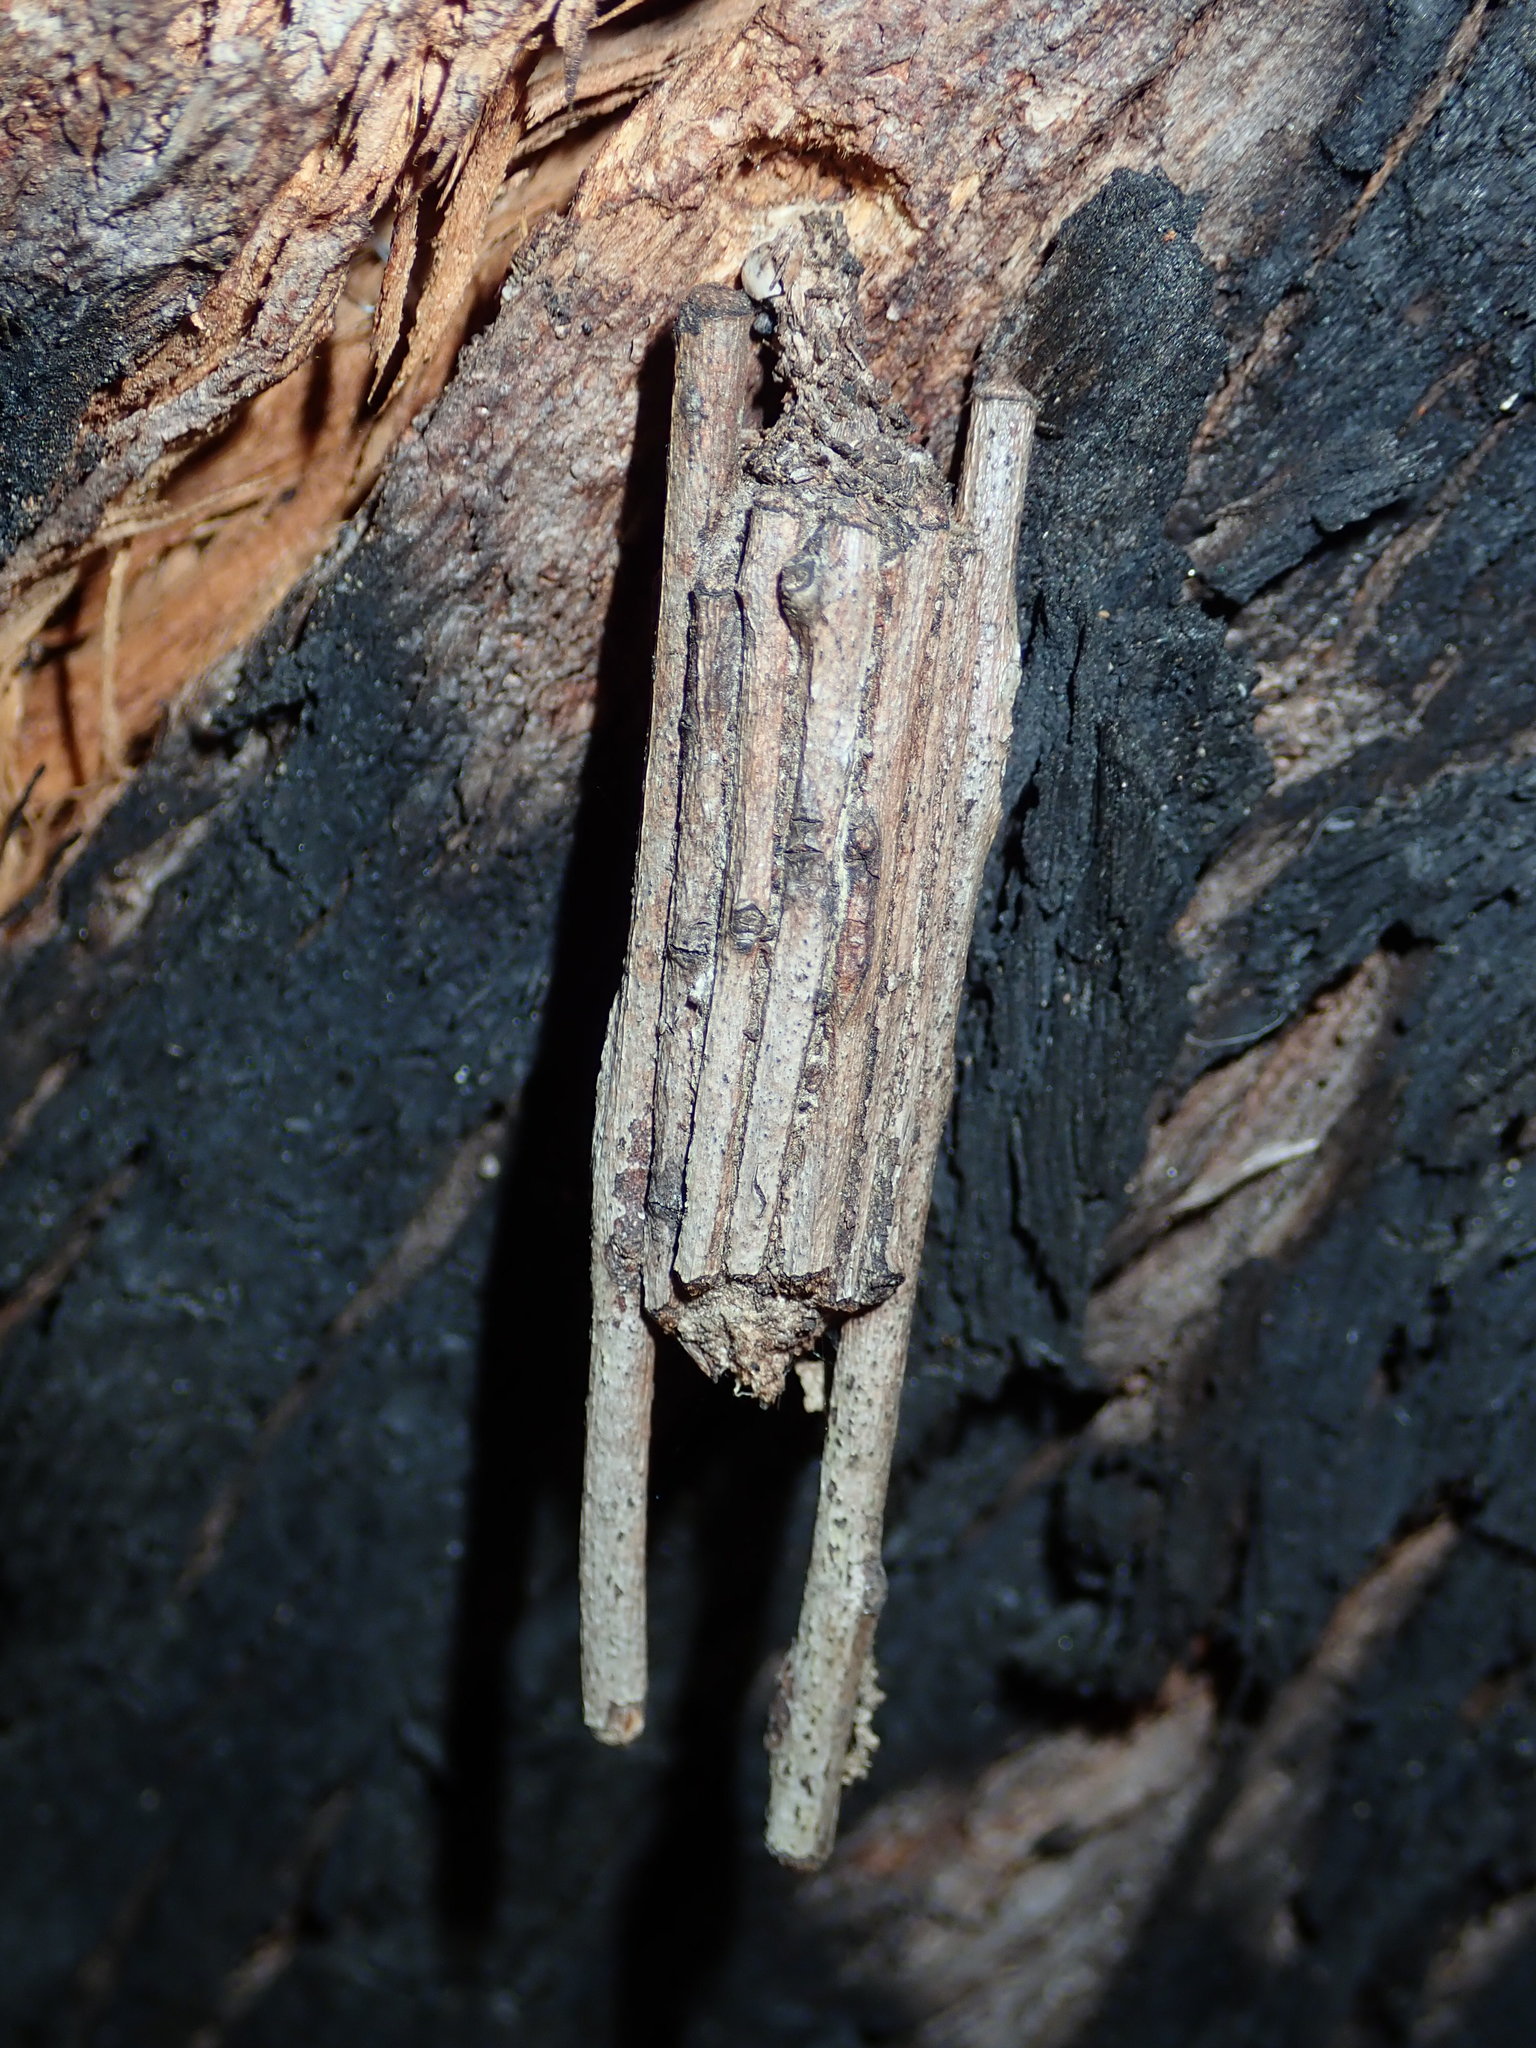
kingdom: Animalia
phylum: Arthropoda
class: Insecta
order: Lepidoptera
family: Psychidae
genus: Clania
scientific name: Clania ignobilis
